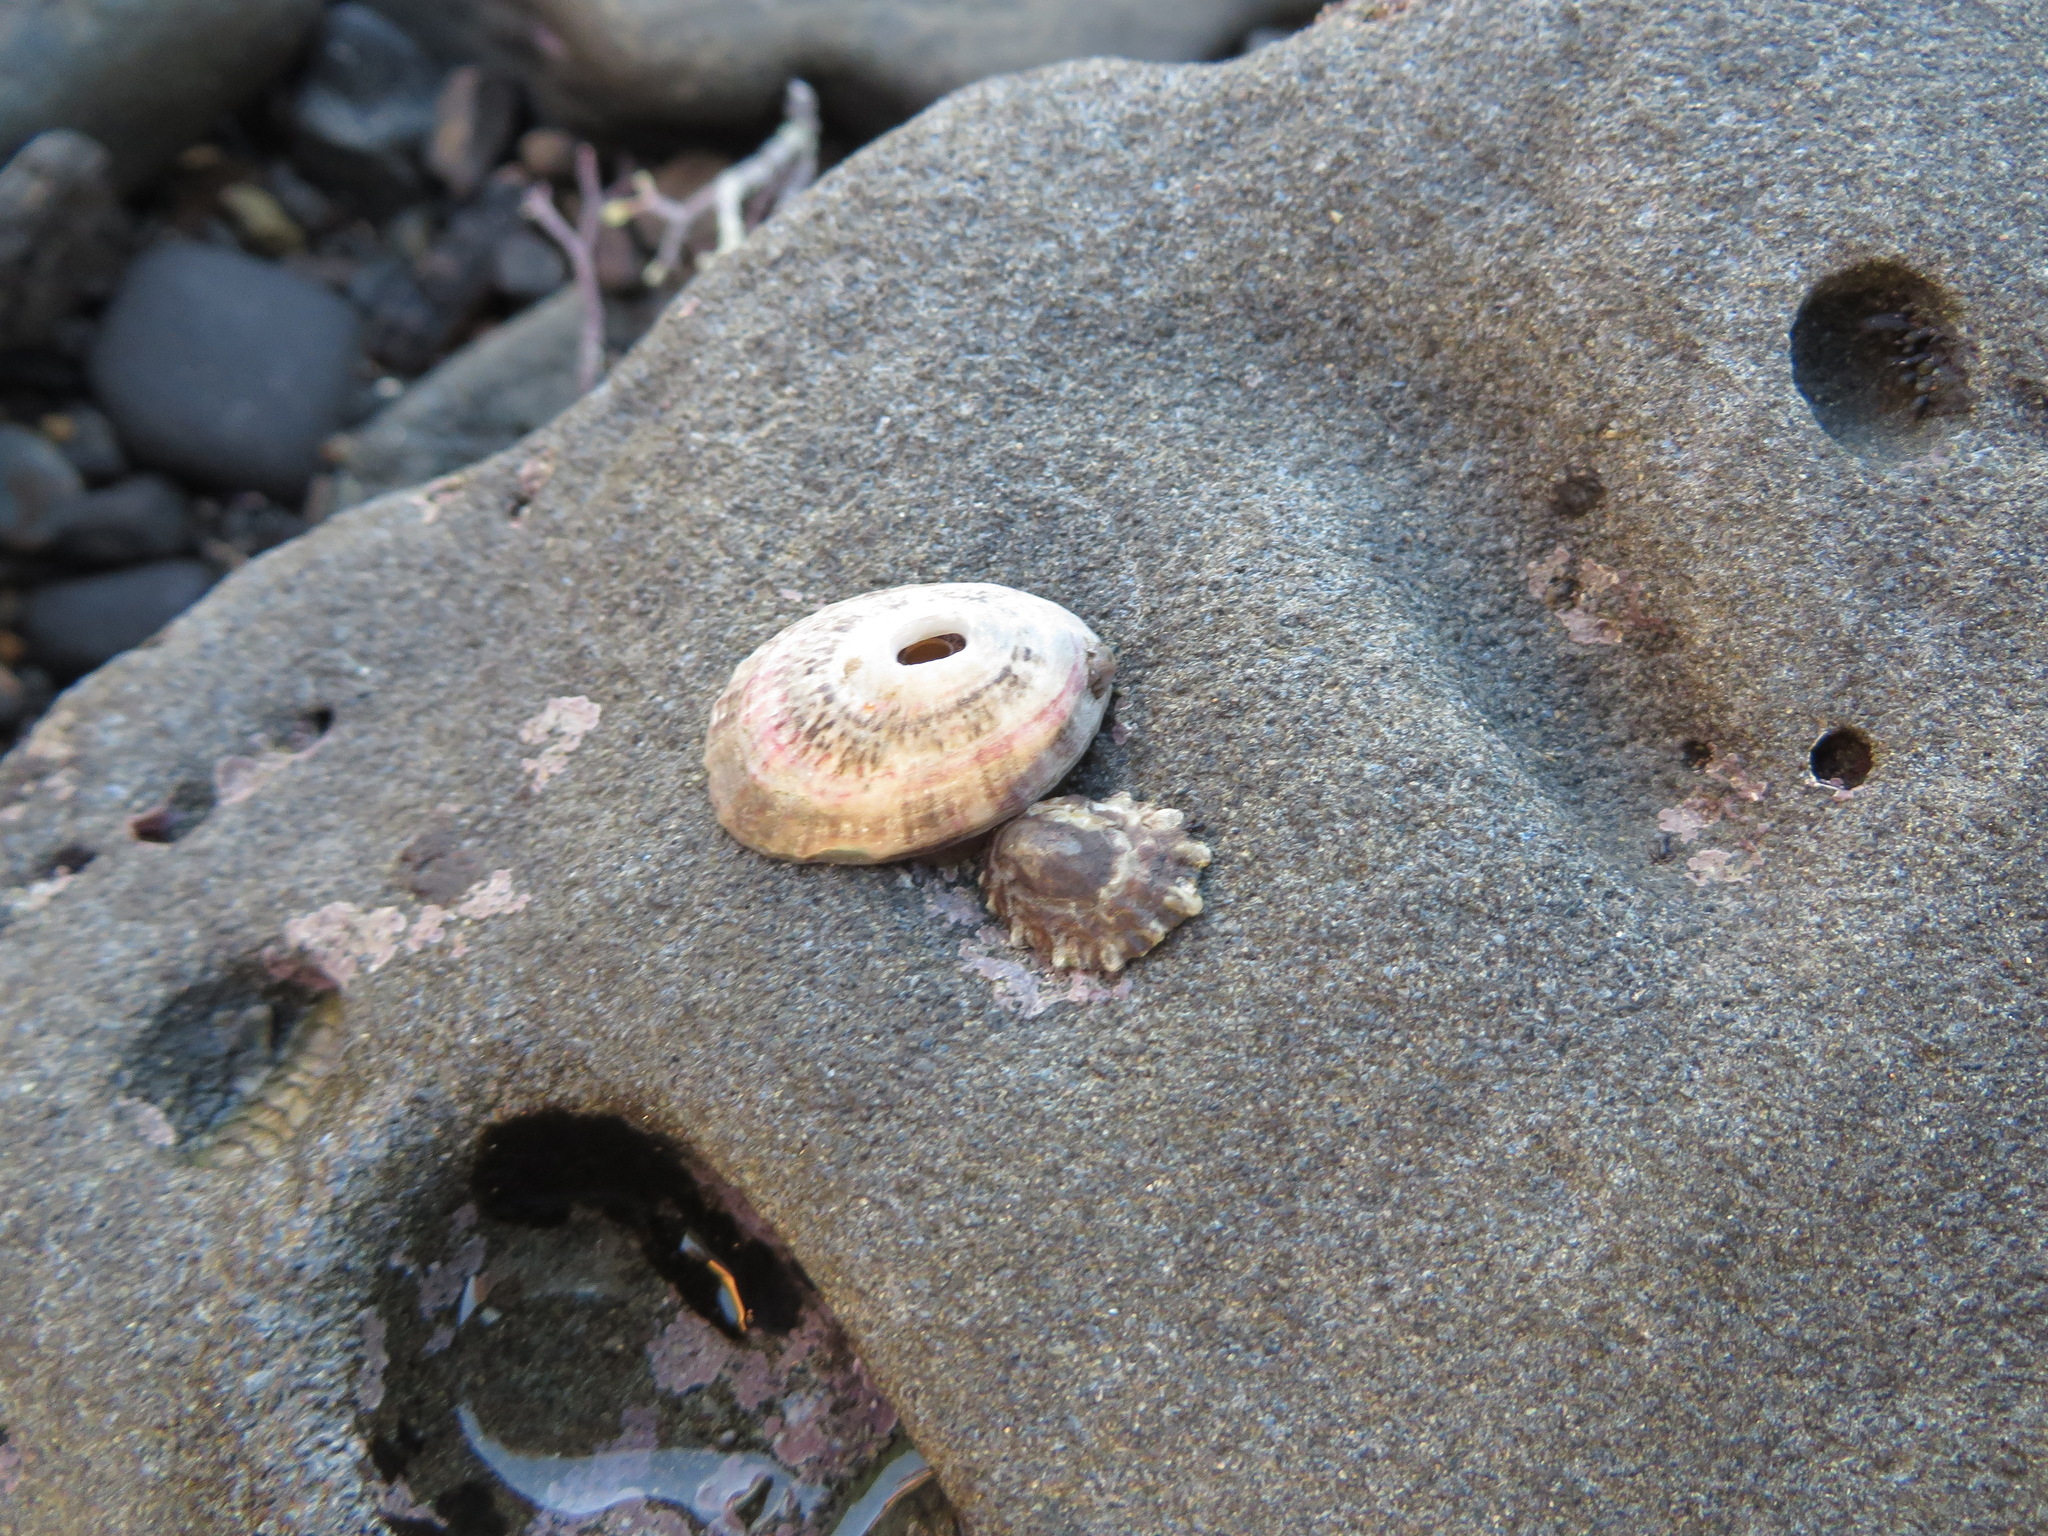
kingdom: Animalia
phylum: Mollusca
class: Gastropoda
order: Lepetellida
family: Fissurellidae
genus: Fissurella
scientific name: Fissurella volcano
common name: Volcano keyhole limpet
